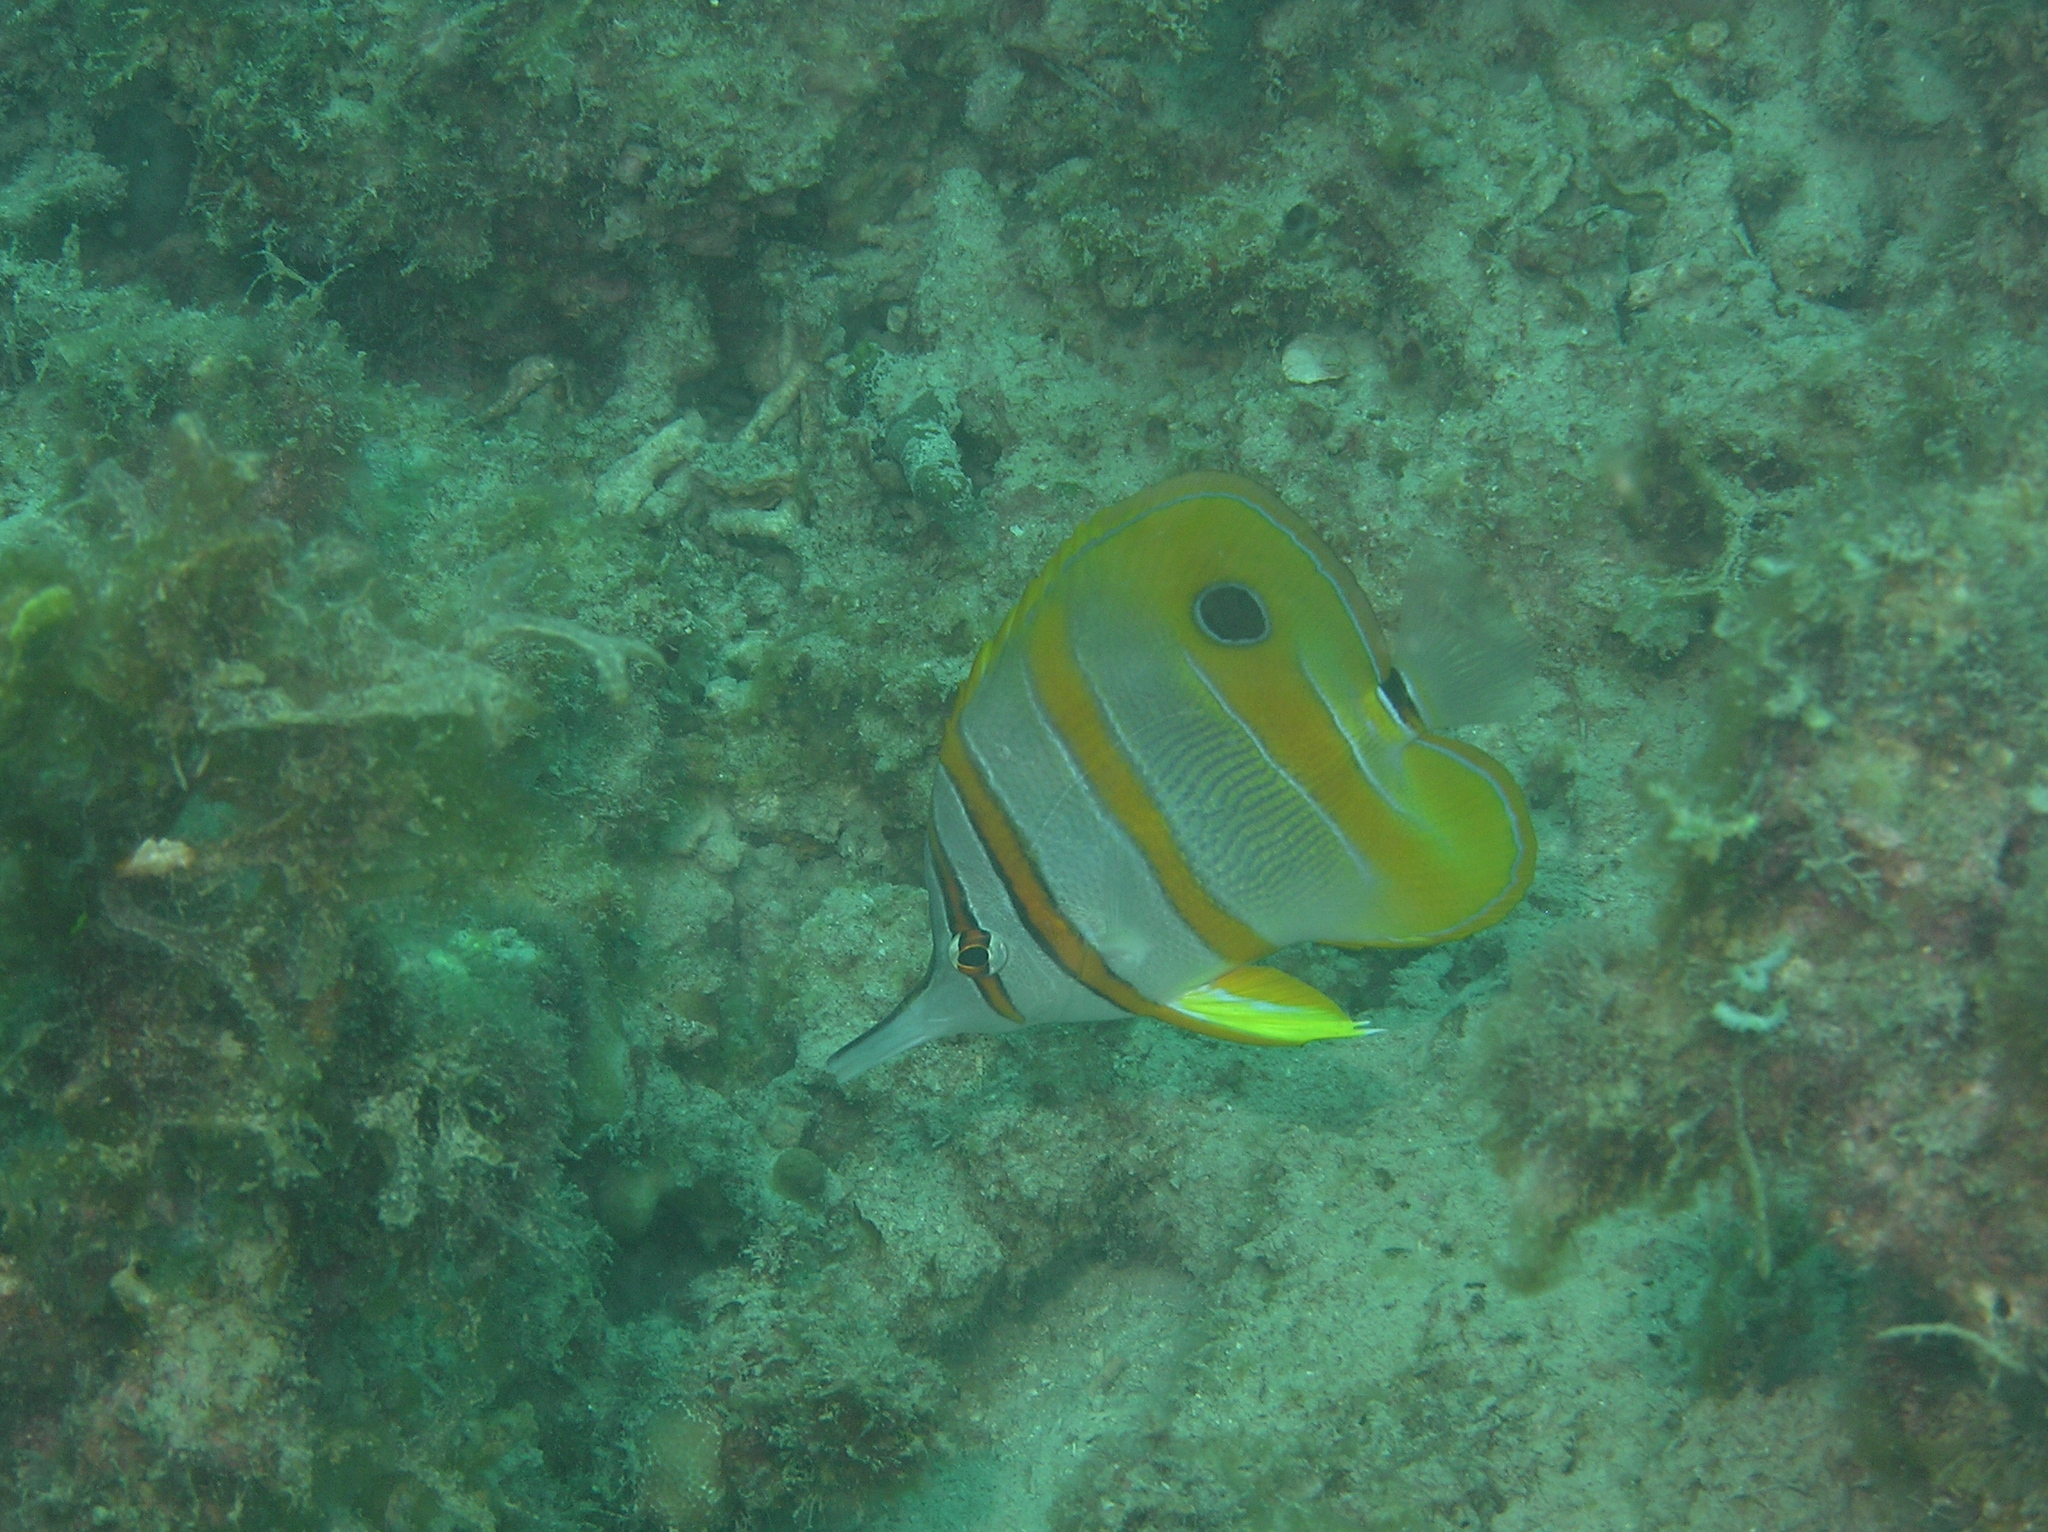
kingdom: Animalia
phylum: Chordata
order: Perciformes
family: Chaetodontidae
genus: Chelmon
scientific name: Chelmon rostratus
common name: Beaked butterflyfish
